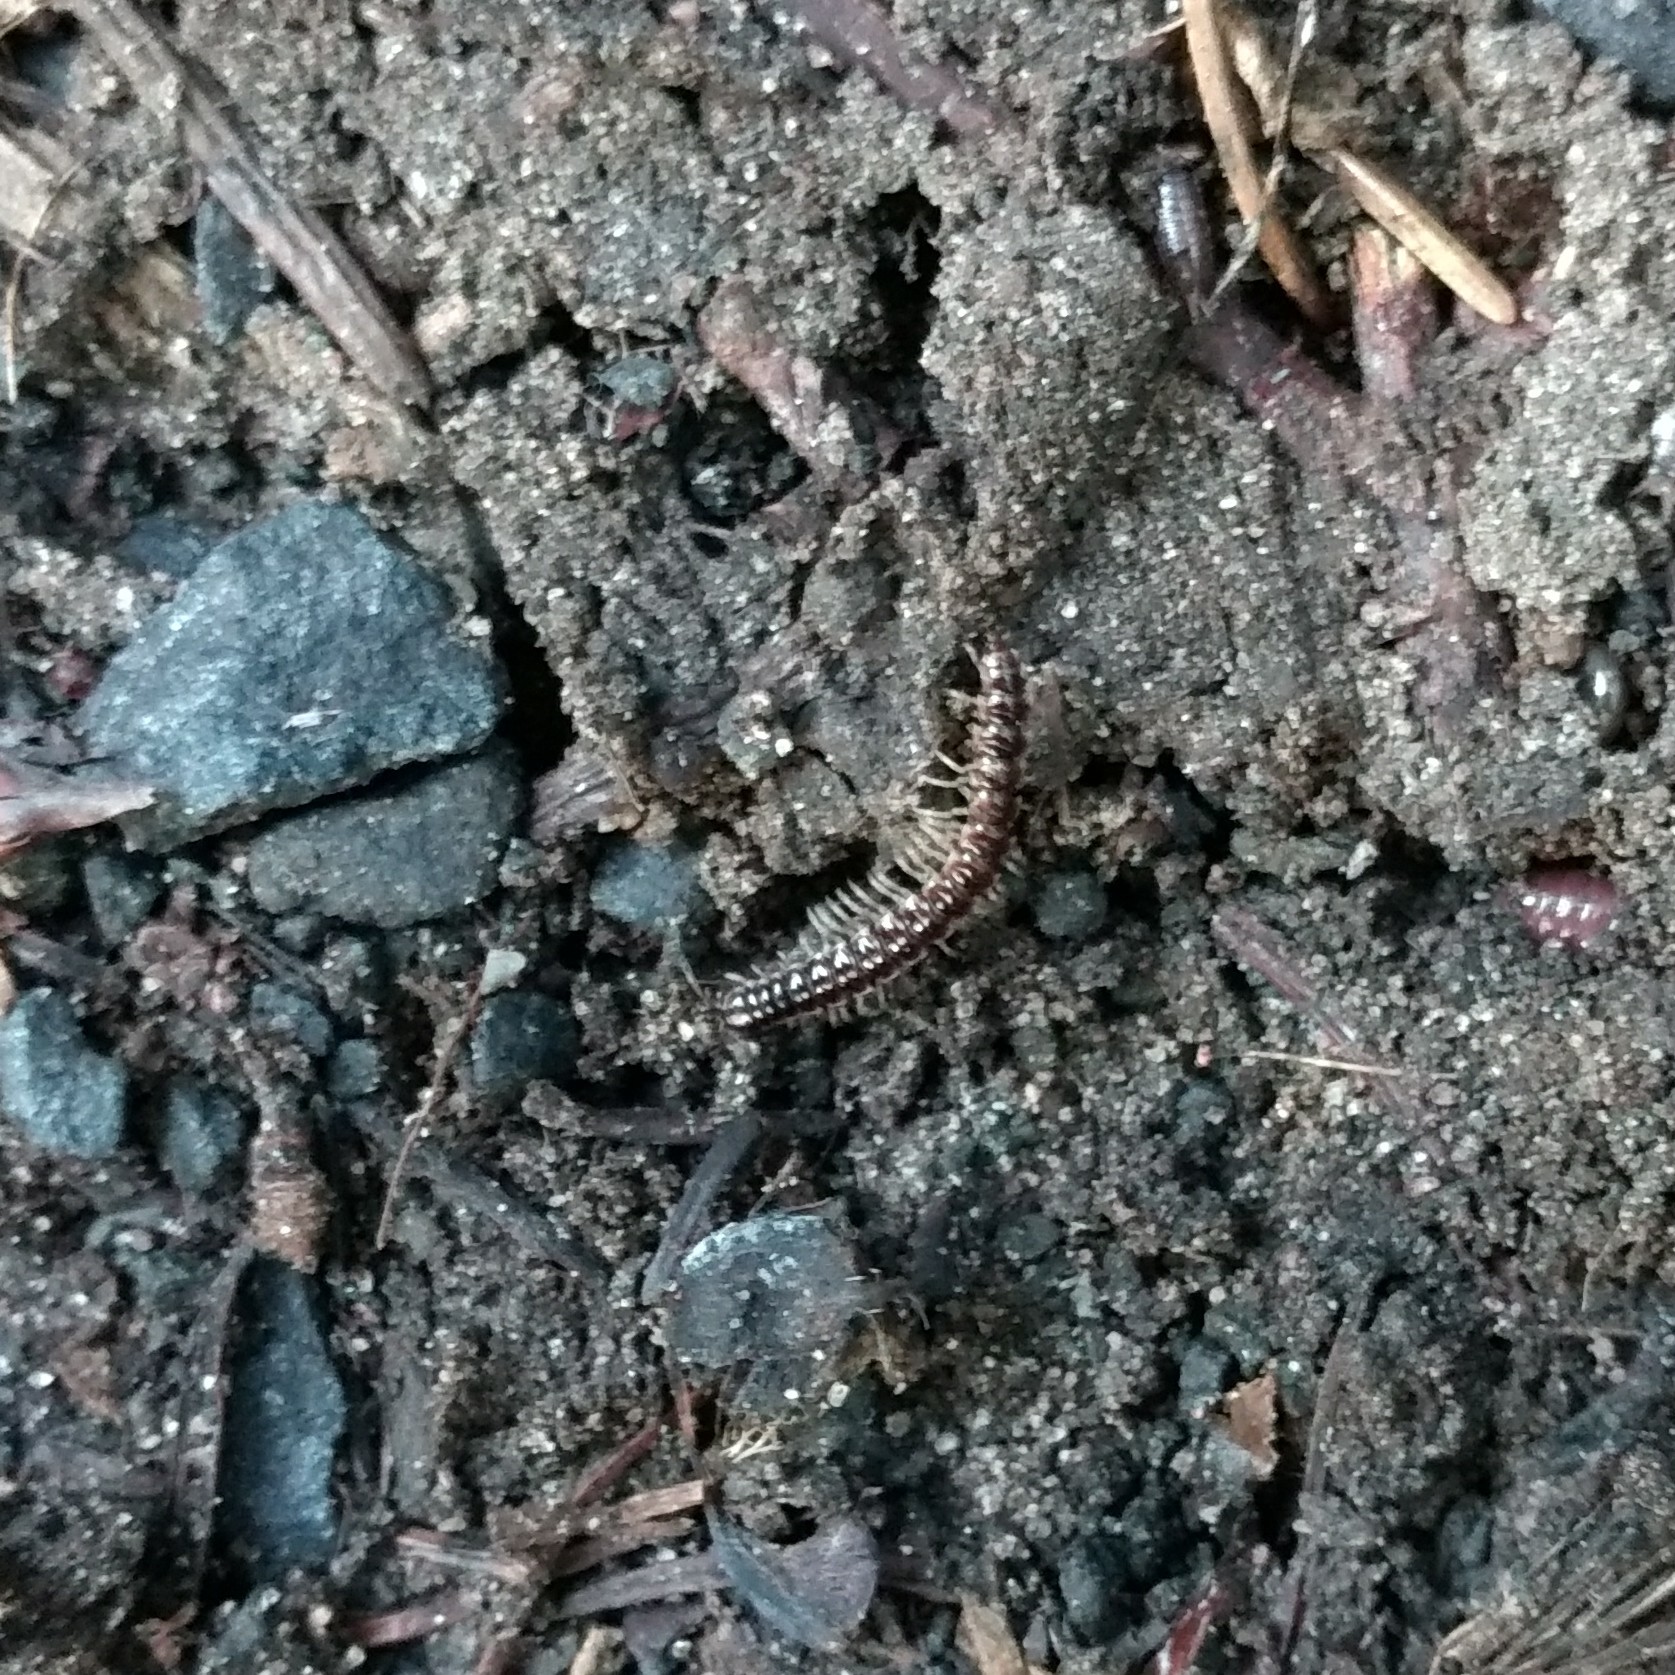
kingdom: Animalia
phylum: Arthropoda
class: Diplopoda
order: Polydesmida
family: Paradoxosomatidae
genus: Oxidus
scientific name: Oxidus gracilis
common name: Greenhouse millipede
